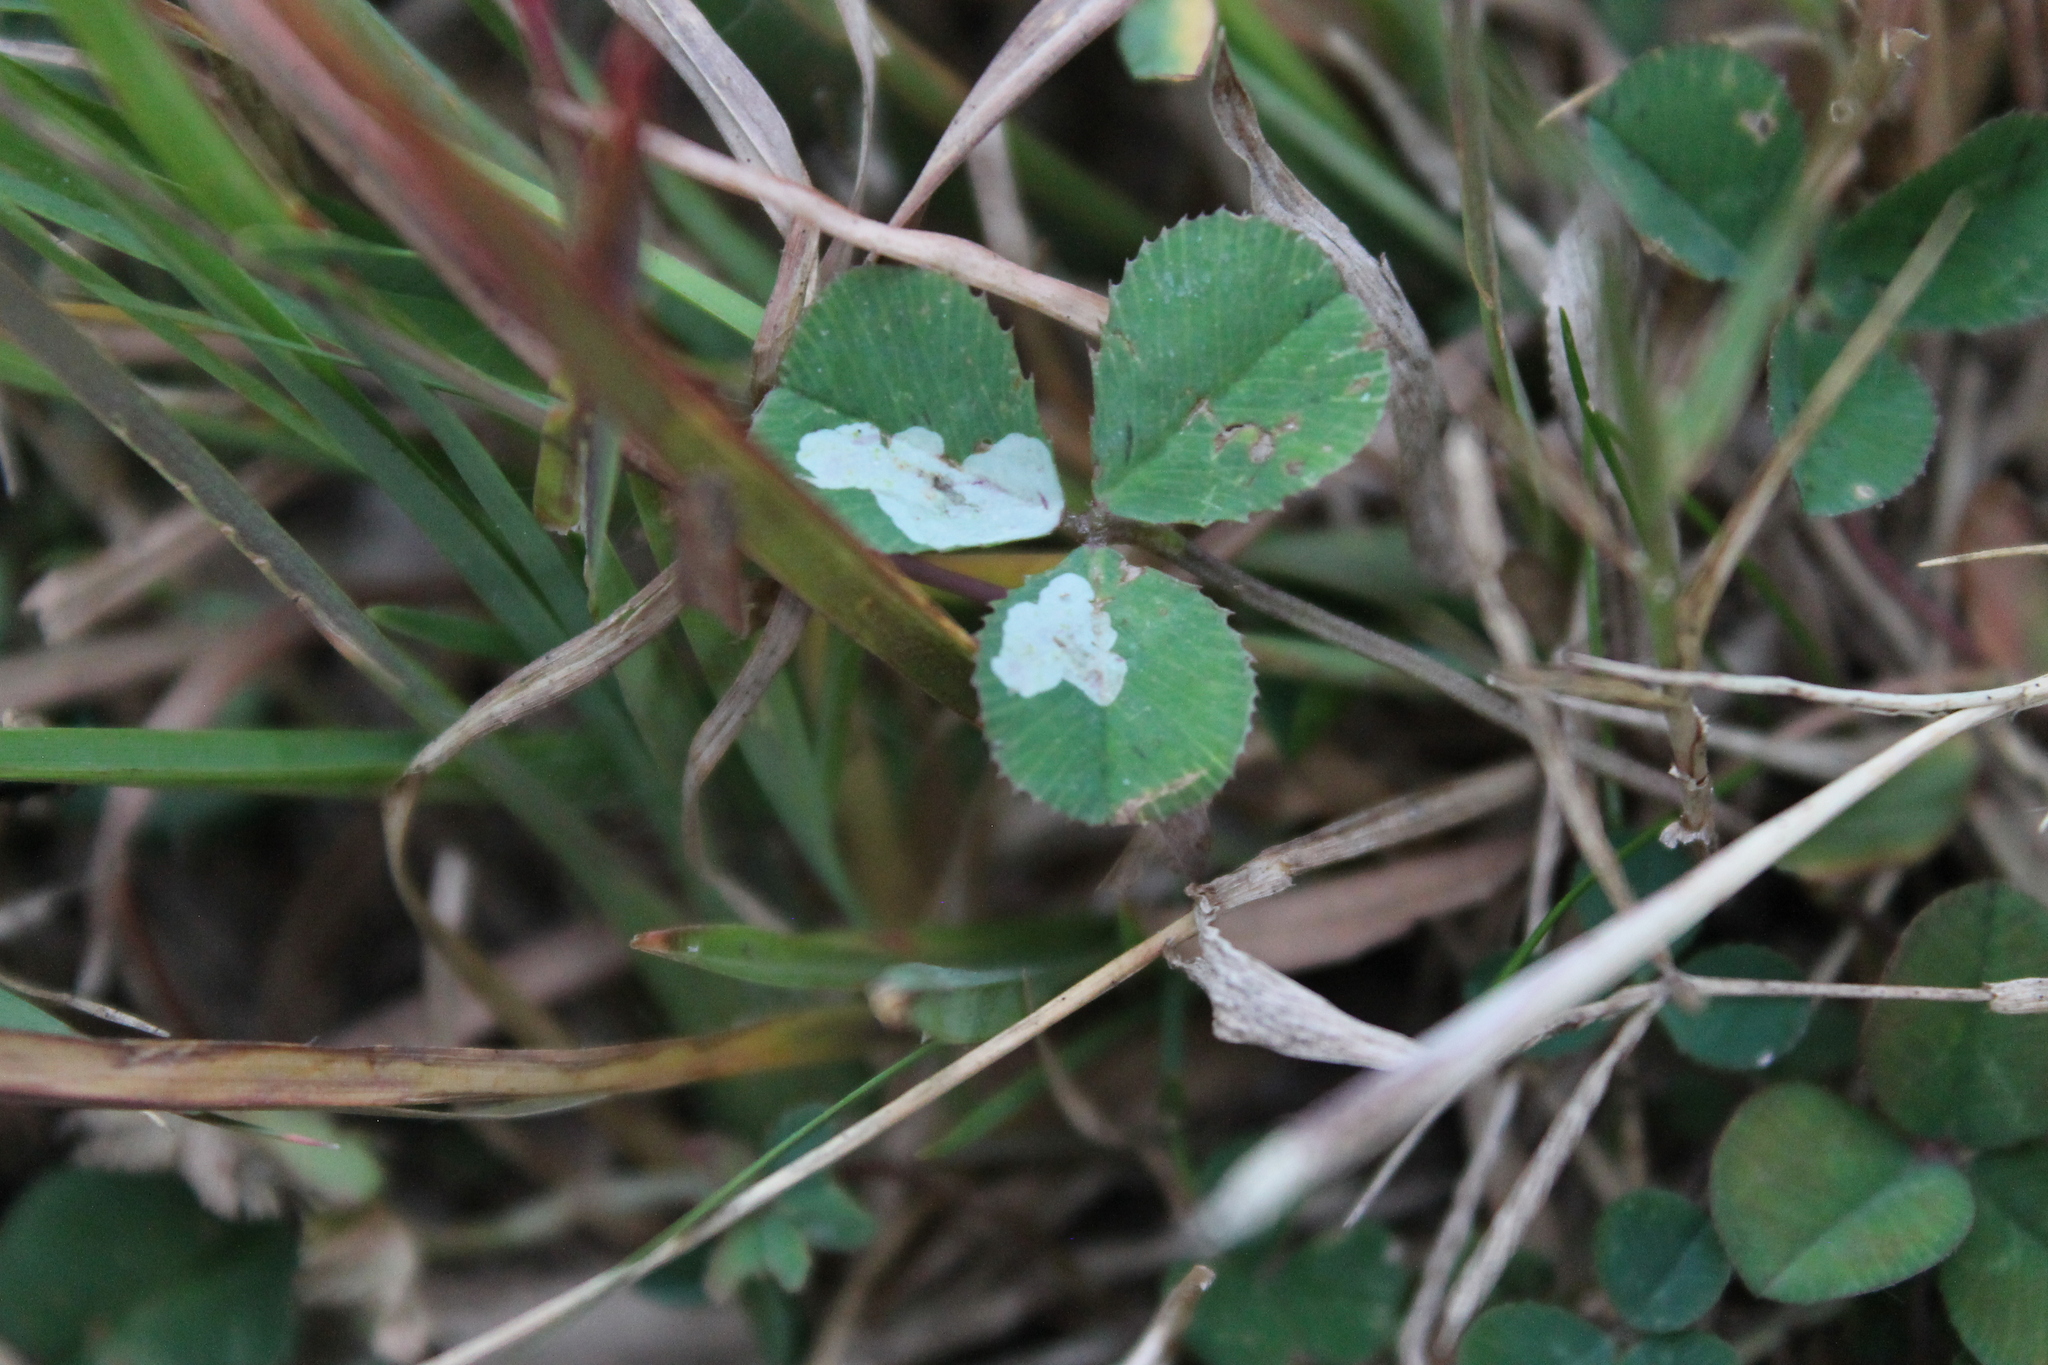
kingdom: Animalia
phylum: Arthropoda
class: Insecta
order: Lepidoptera
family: Gracillariidae
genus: Porphyrosela
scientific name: Porphyrosela minuta
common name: Leaf miner moth
